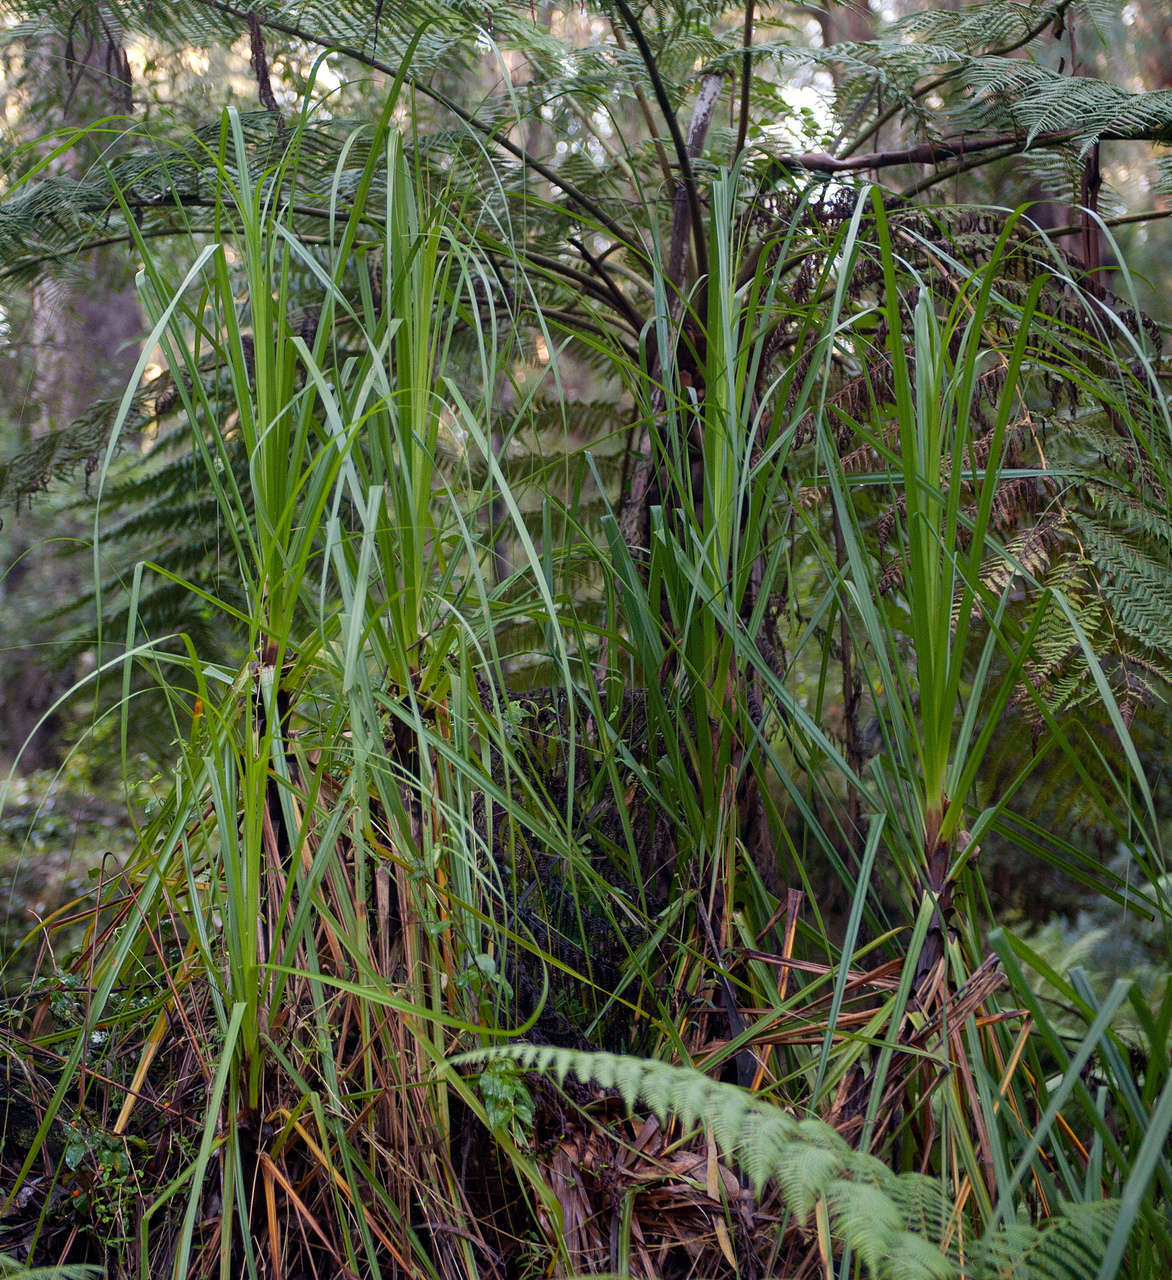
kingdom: Plantae
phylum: Tracheophyta
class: Liliopsida
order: Poales
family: Cyperaceae
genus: Gahnia
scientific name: Gahnia clarkei
